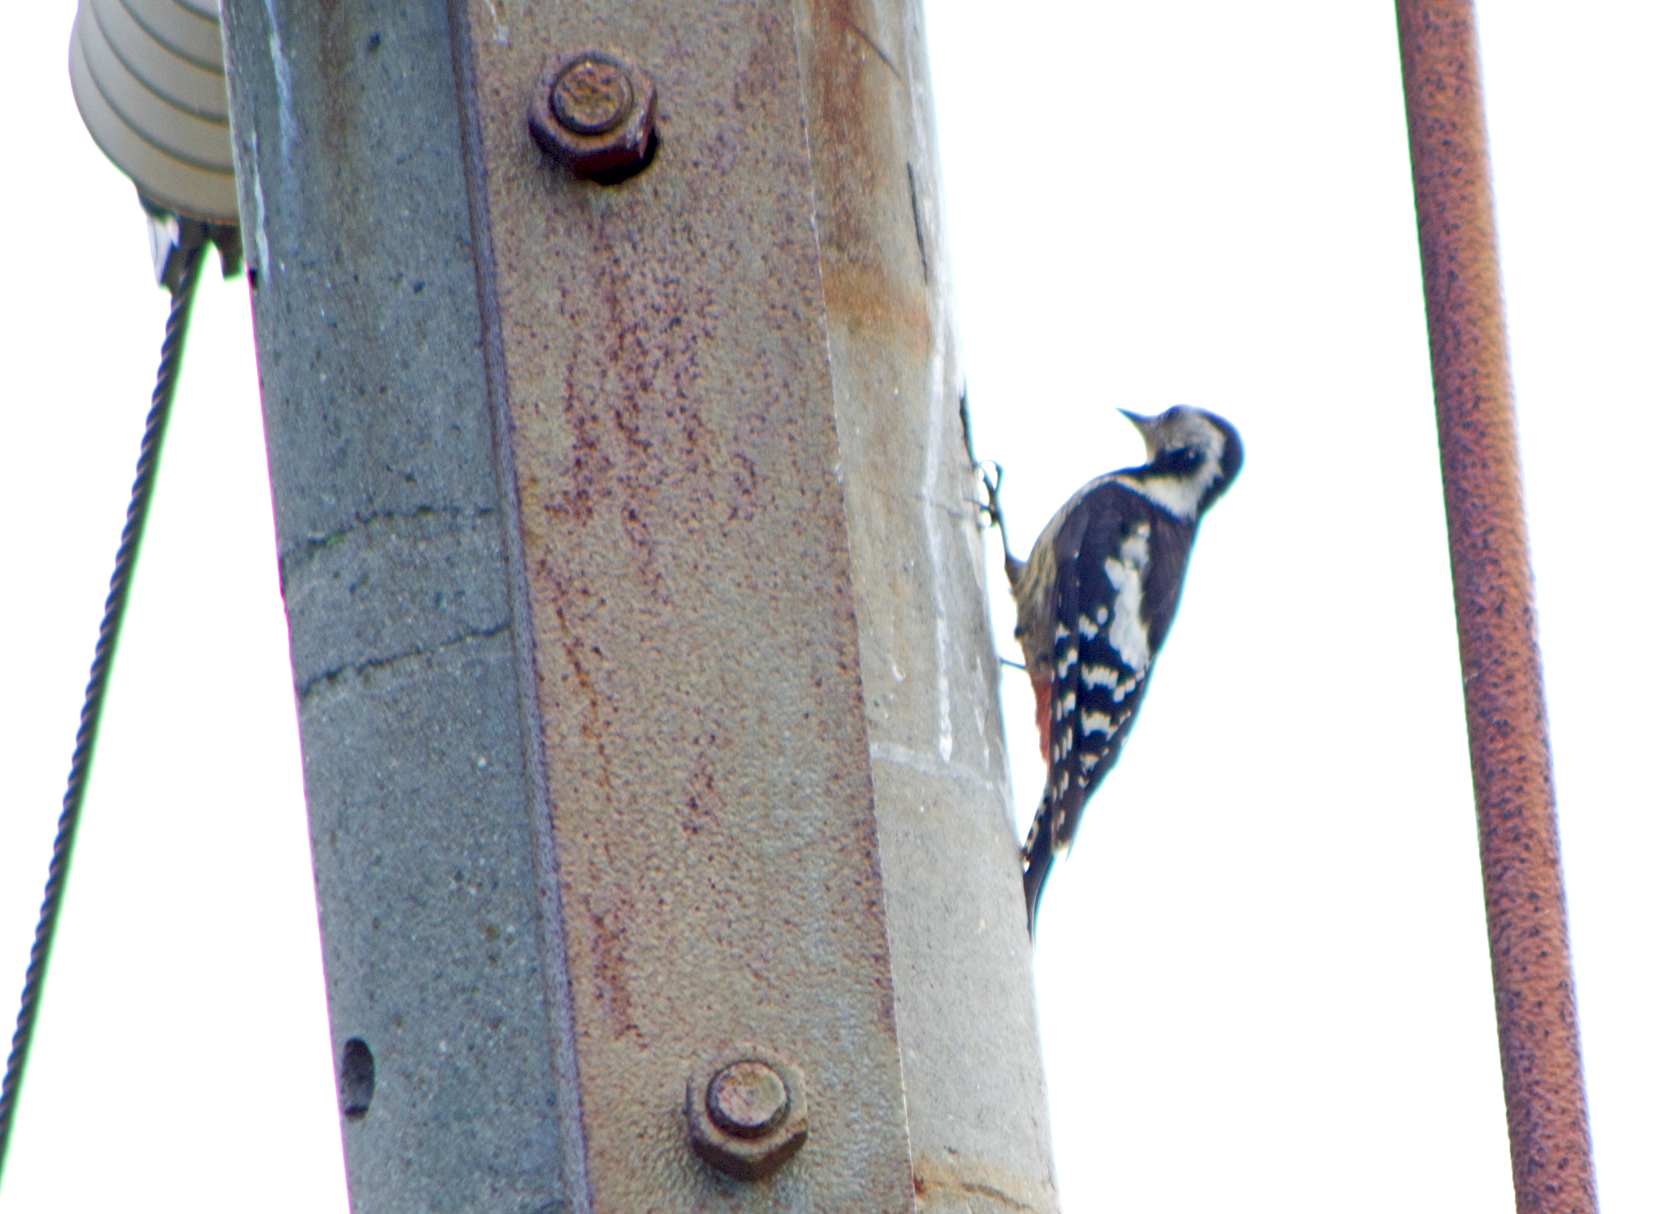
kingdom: Animalia
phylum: Chordata
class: Aves
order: Piciformes
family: Picidae
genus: Dendrocopos
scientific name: Dendrocopos syriacus
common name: Syrian woodpecker
